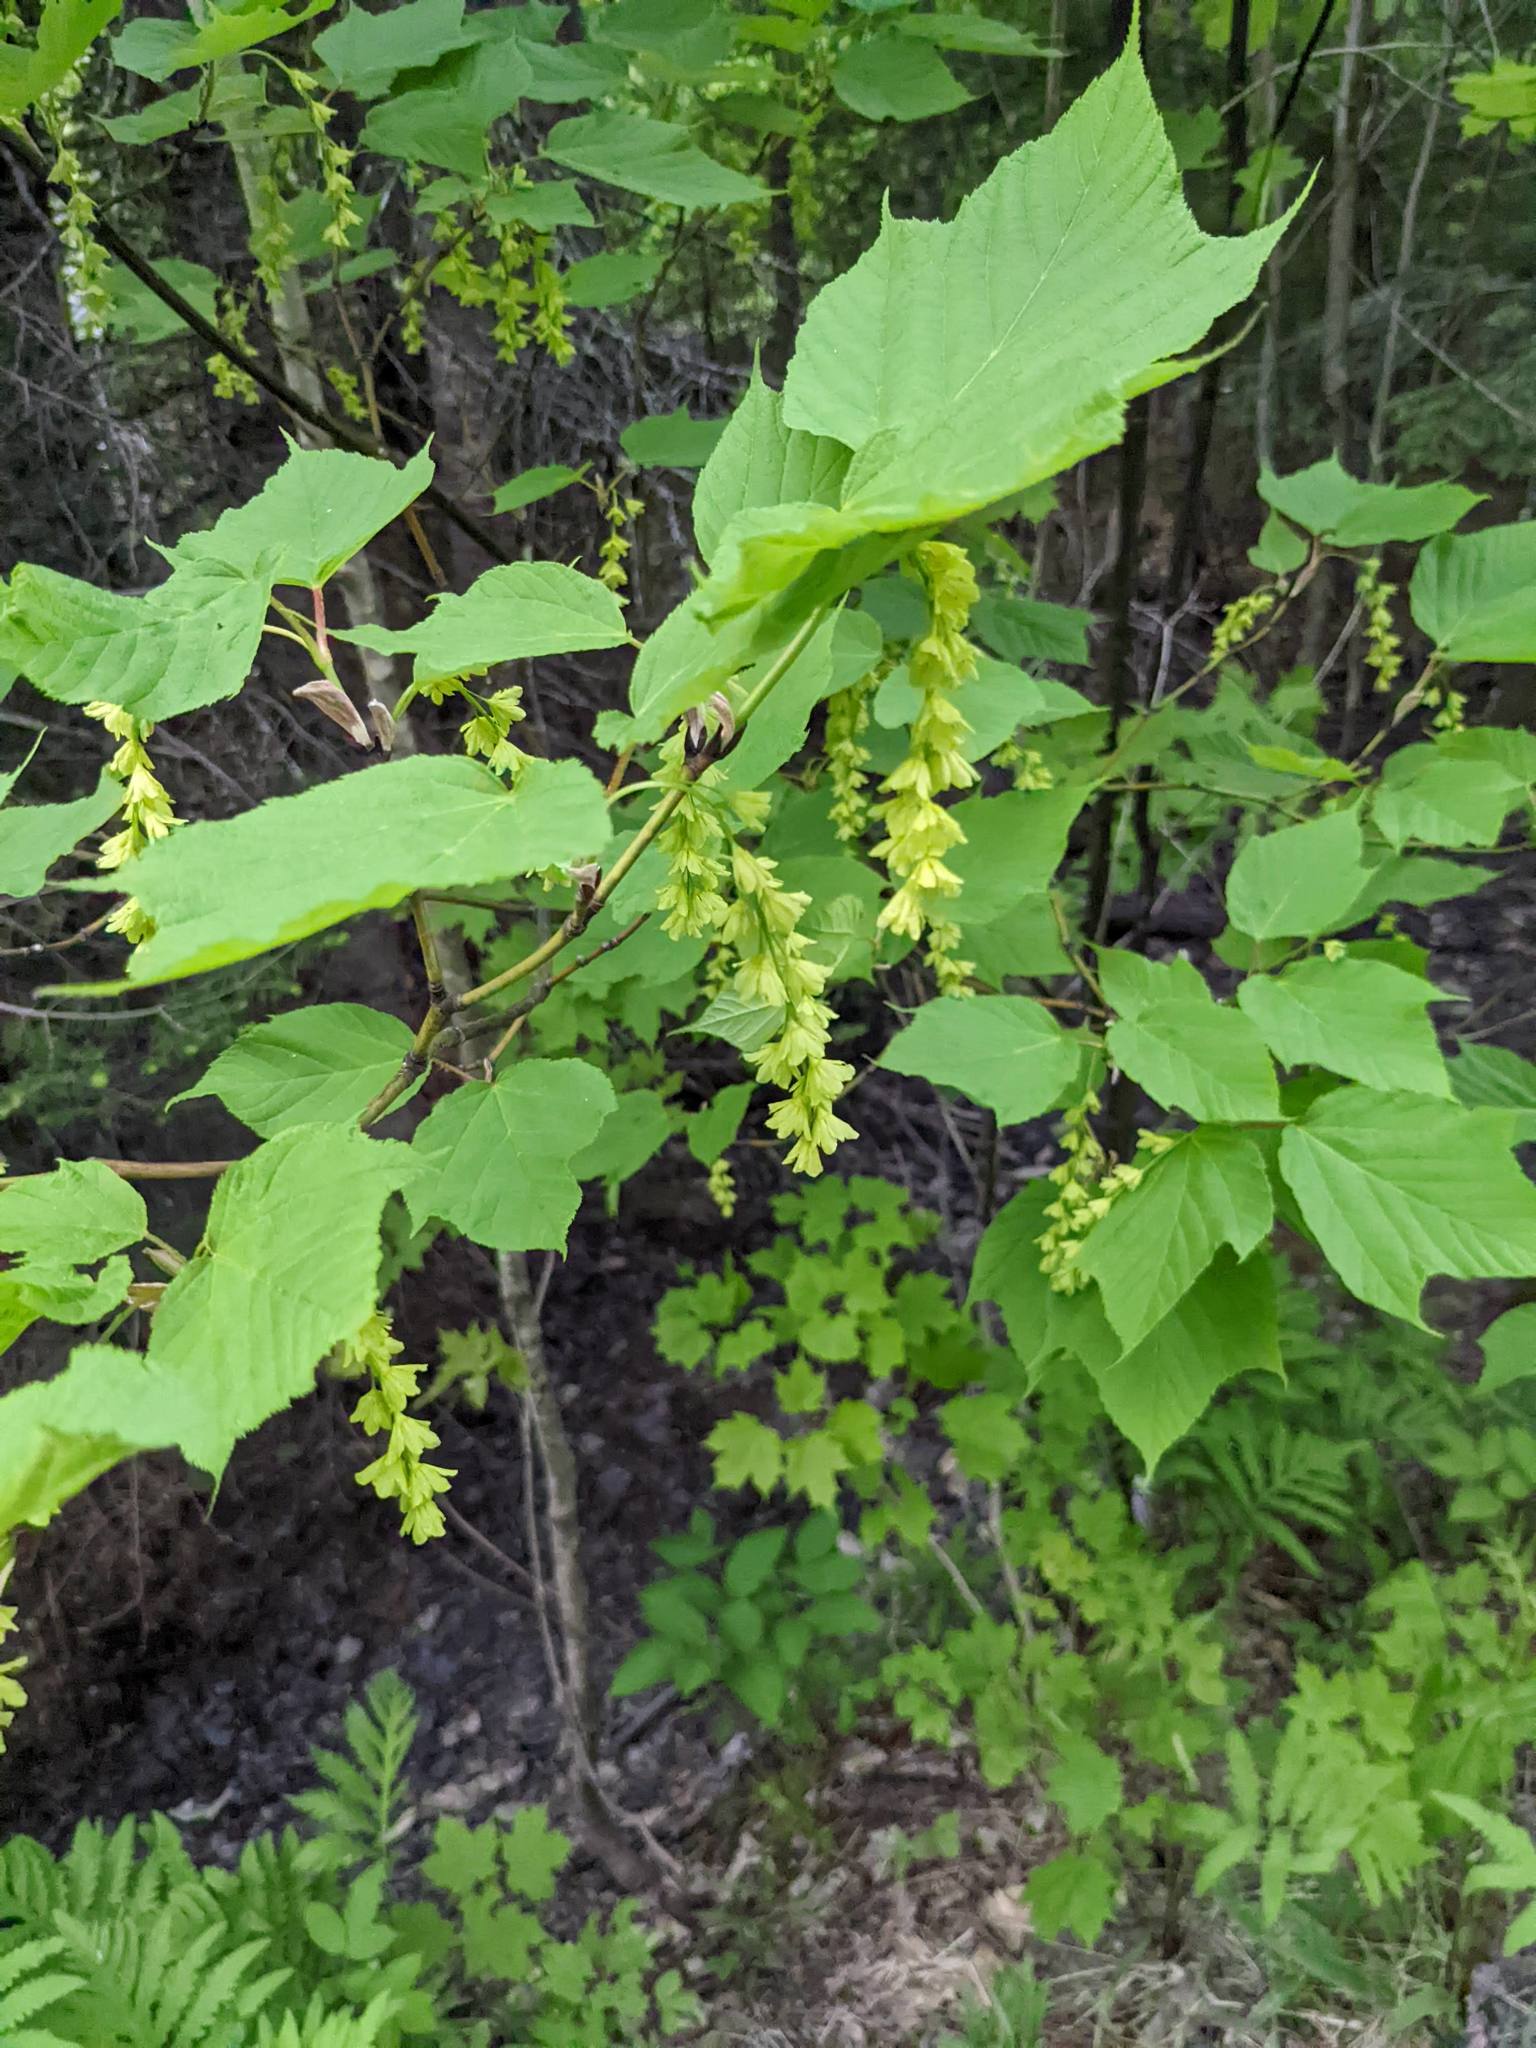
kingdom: Plantae
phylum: Tracheophyta
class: Magnoliopsida
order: Sapindales
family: Sapindaceae
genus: Acer
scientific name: Acer pensylvanicum
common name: Moosewood
